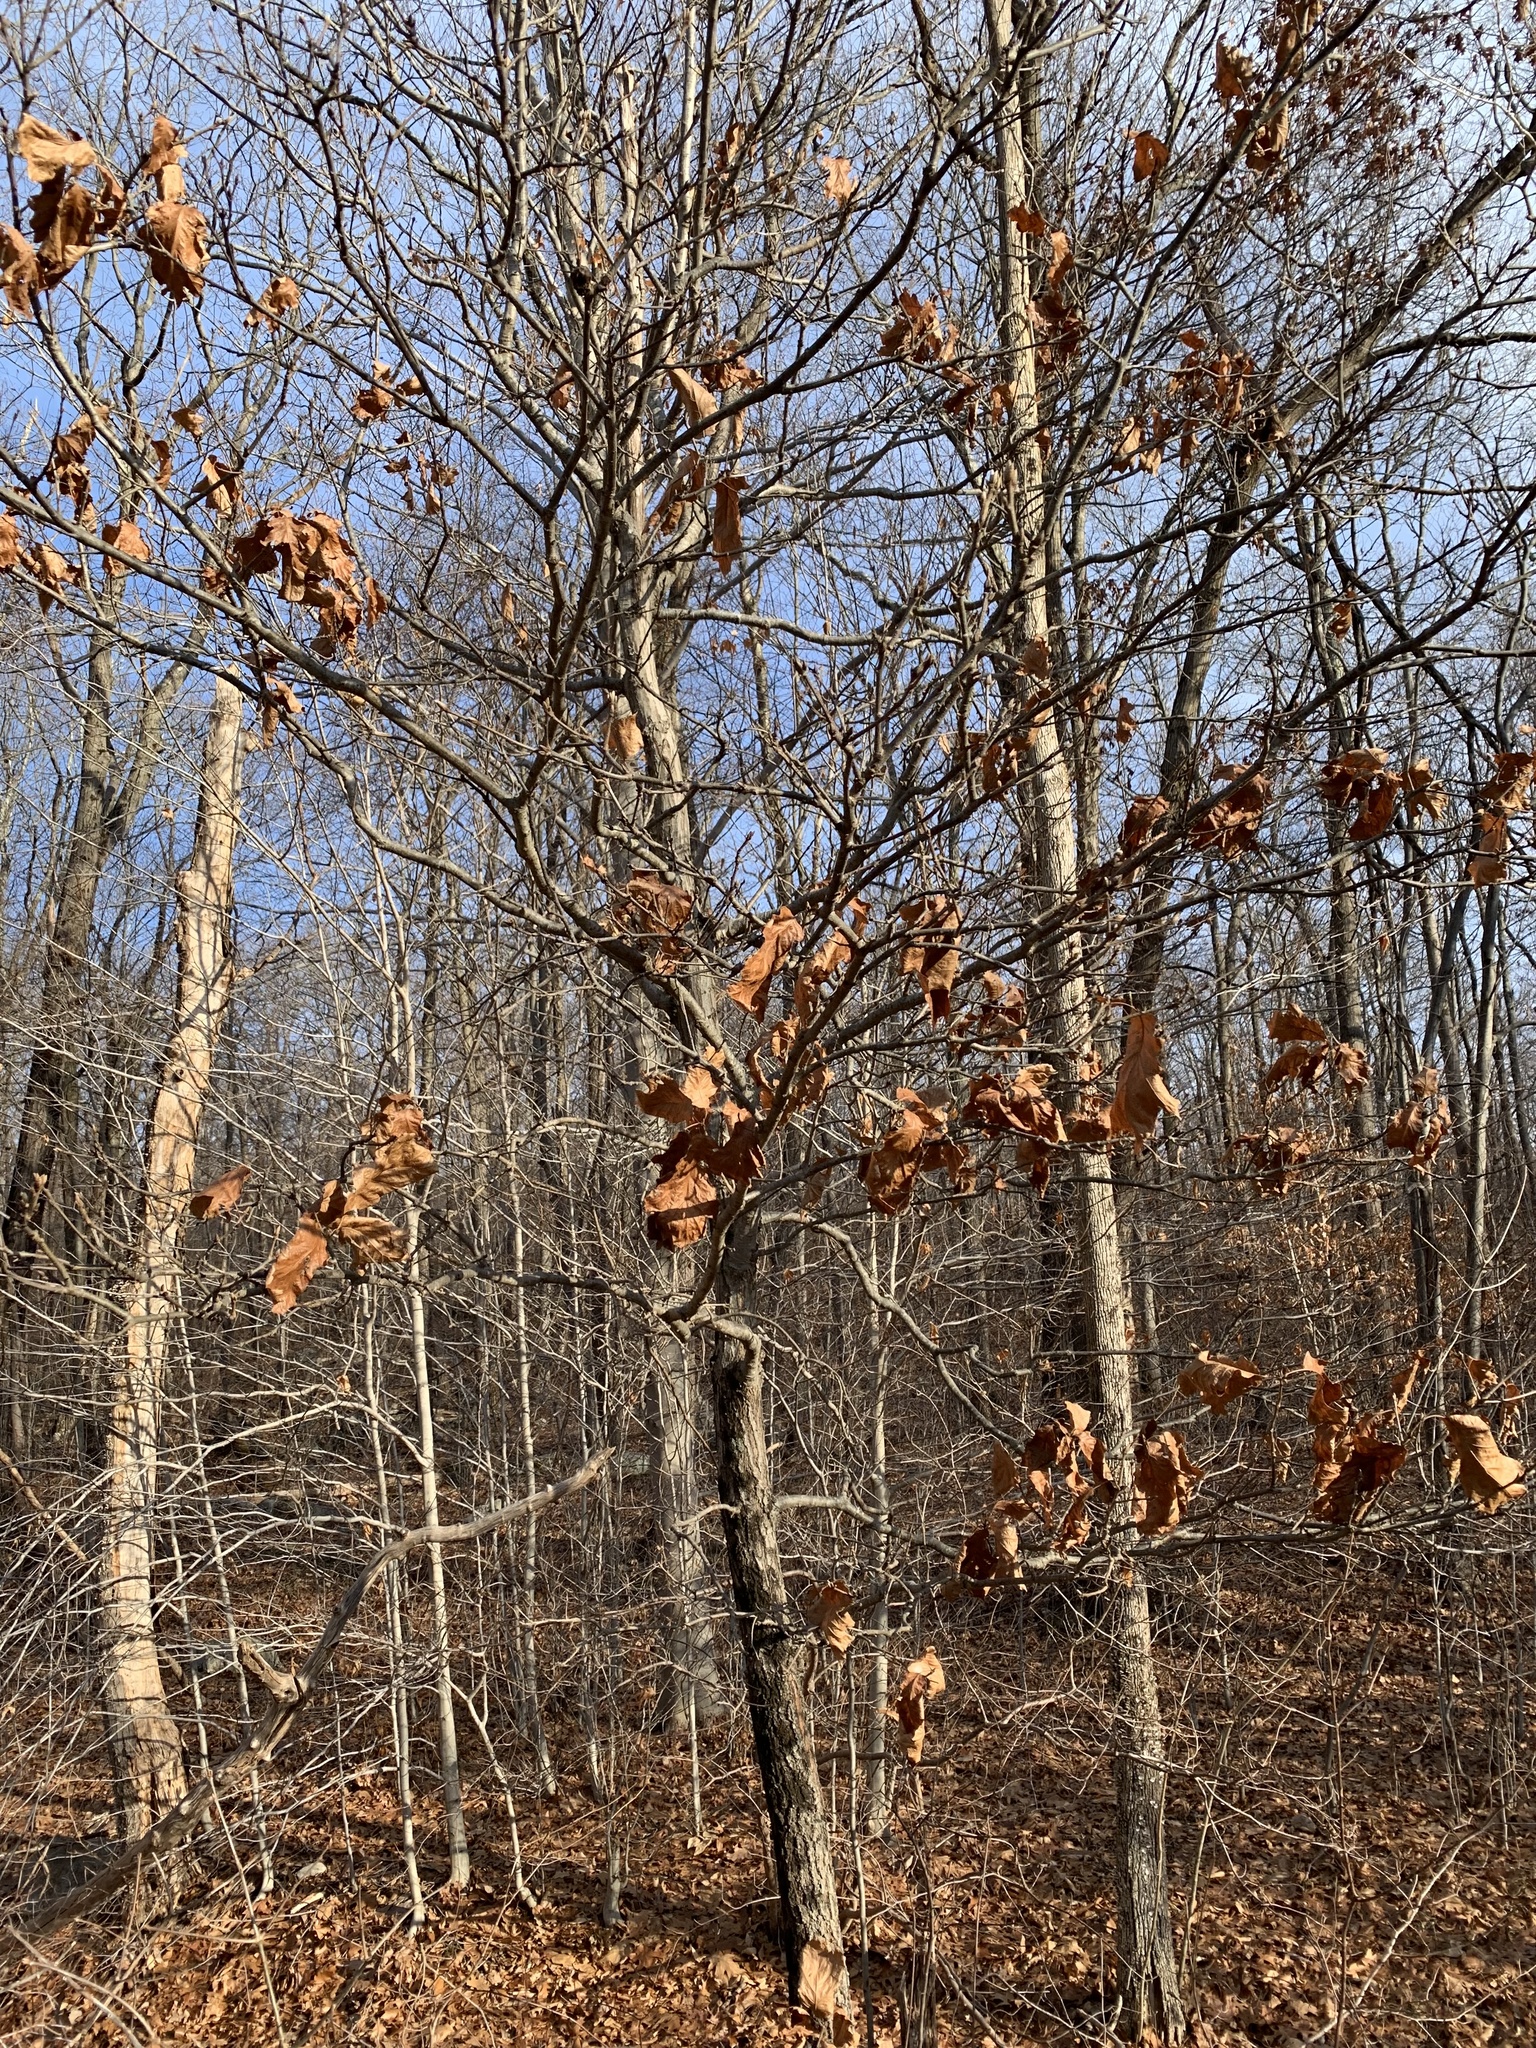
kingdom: Plantae
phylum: Tracheophyta
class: Magnoliopsida
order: Fagales
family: Fagaceae
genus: Quercus
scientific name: Quercus velutina
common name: Black oak
